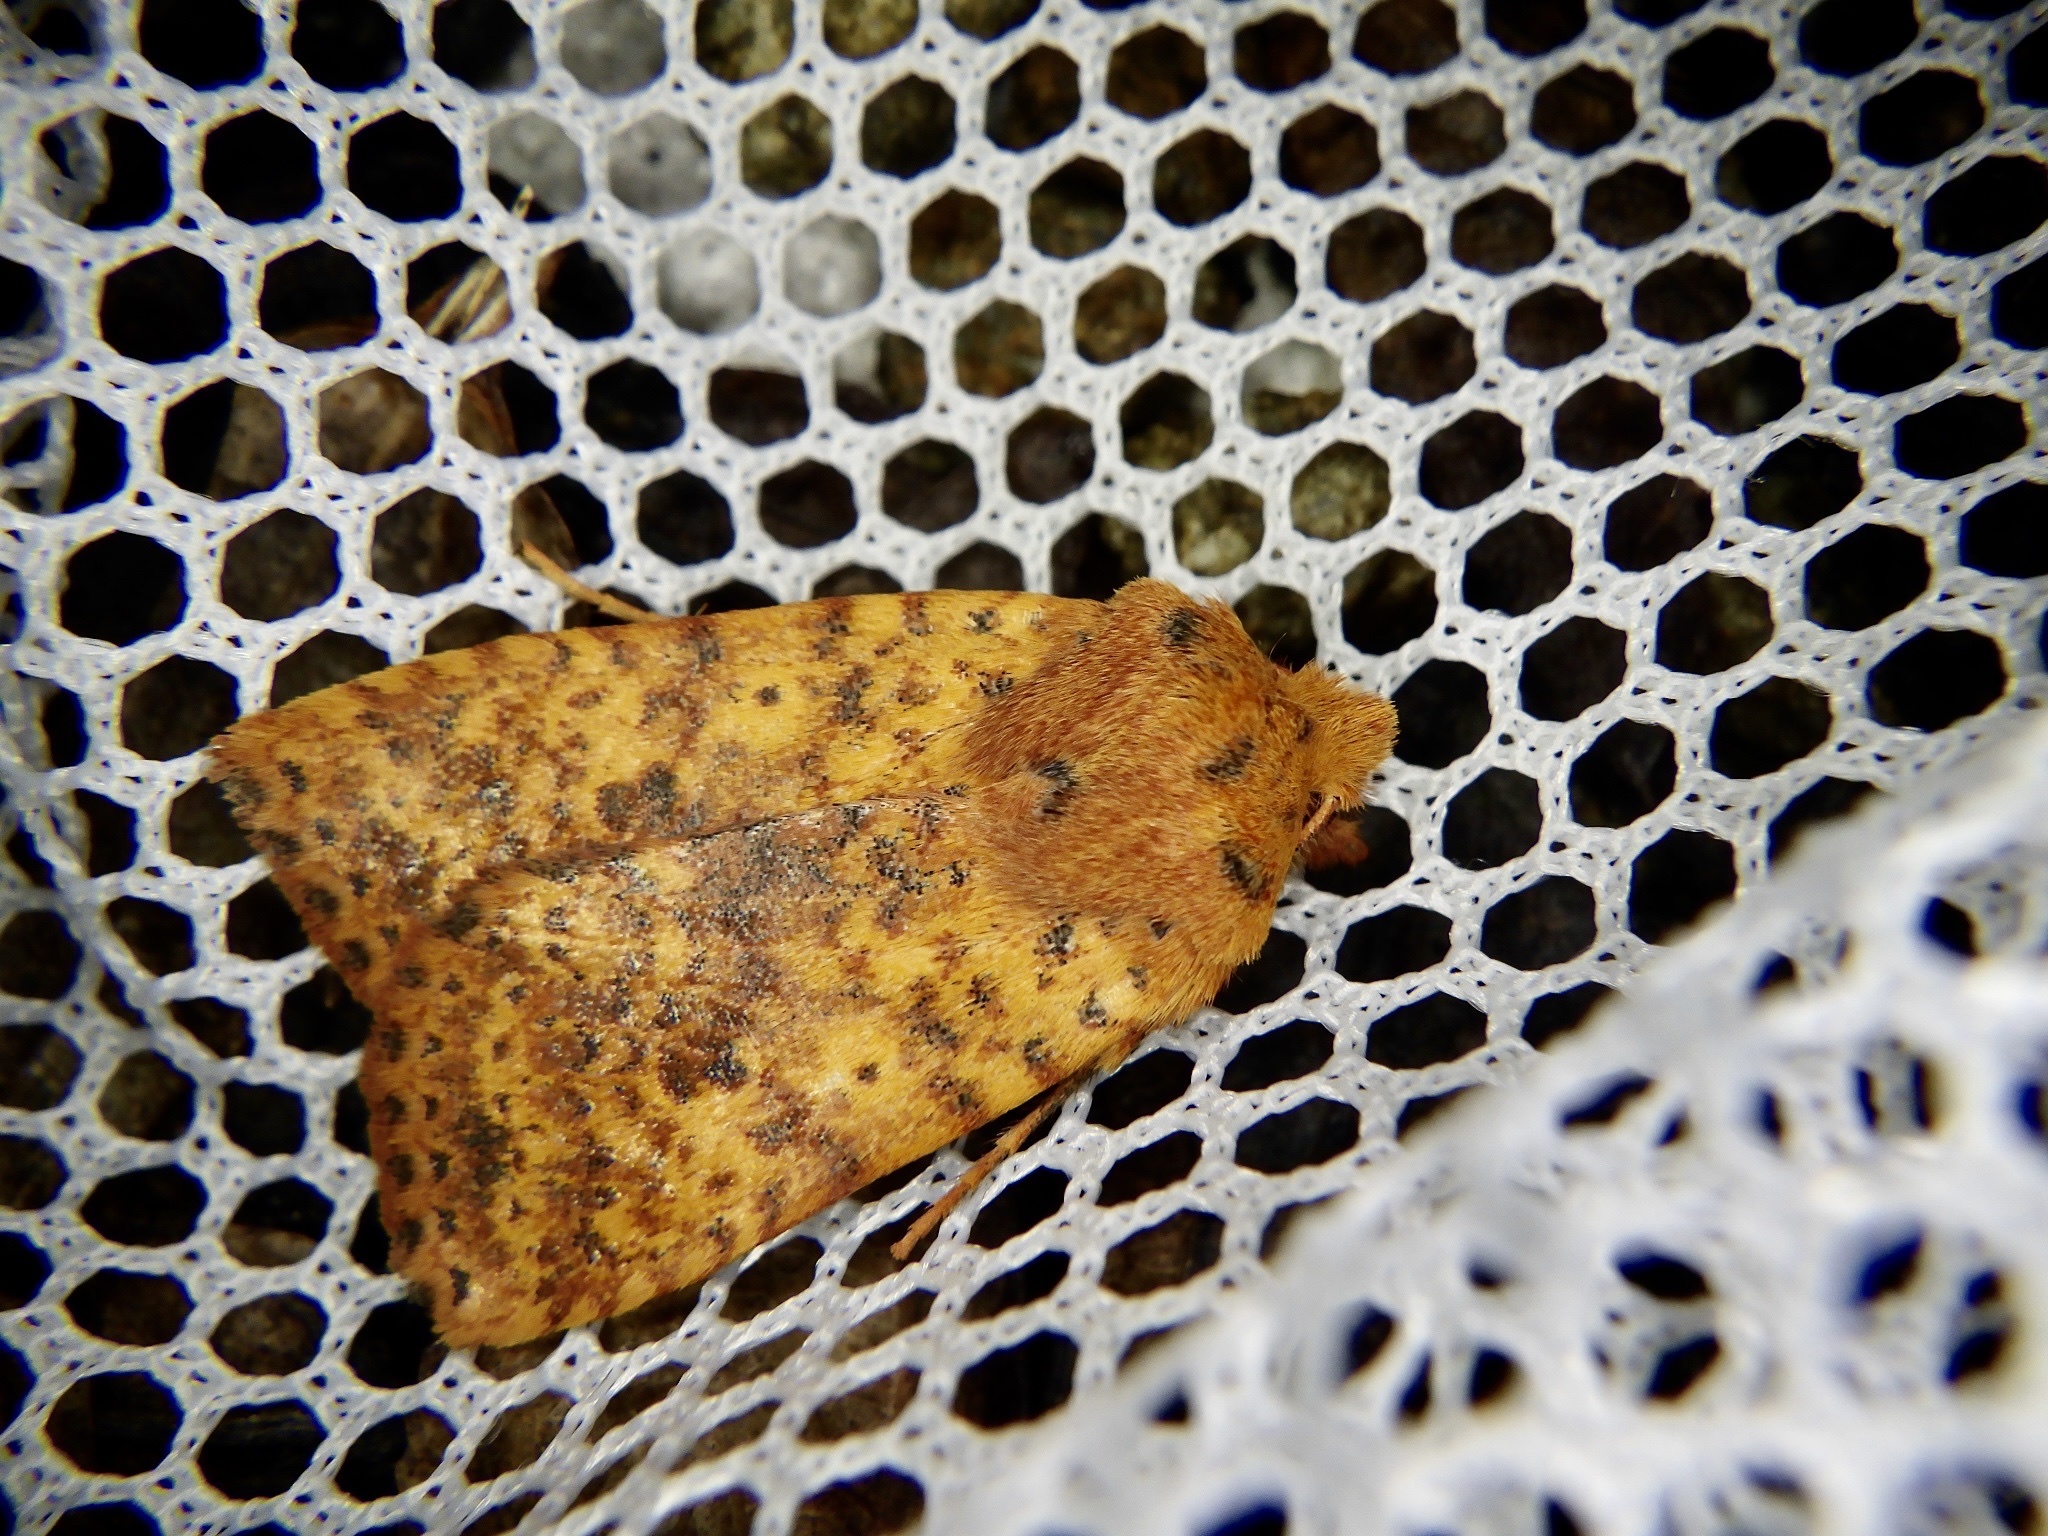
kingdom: Animalia
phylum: Arthropoda
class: Insecta
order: Lepidoptera
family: Noctuidae
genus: Conistra
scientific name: Conistra castaneofasciata
